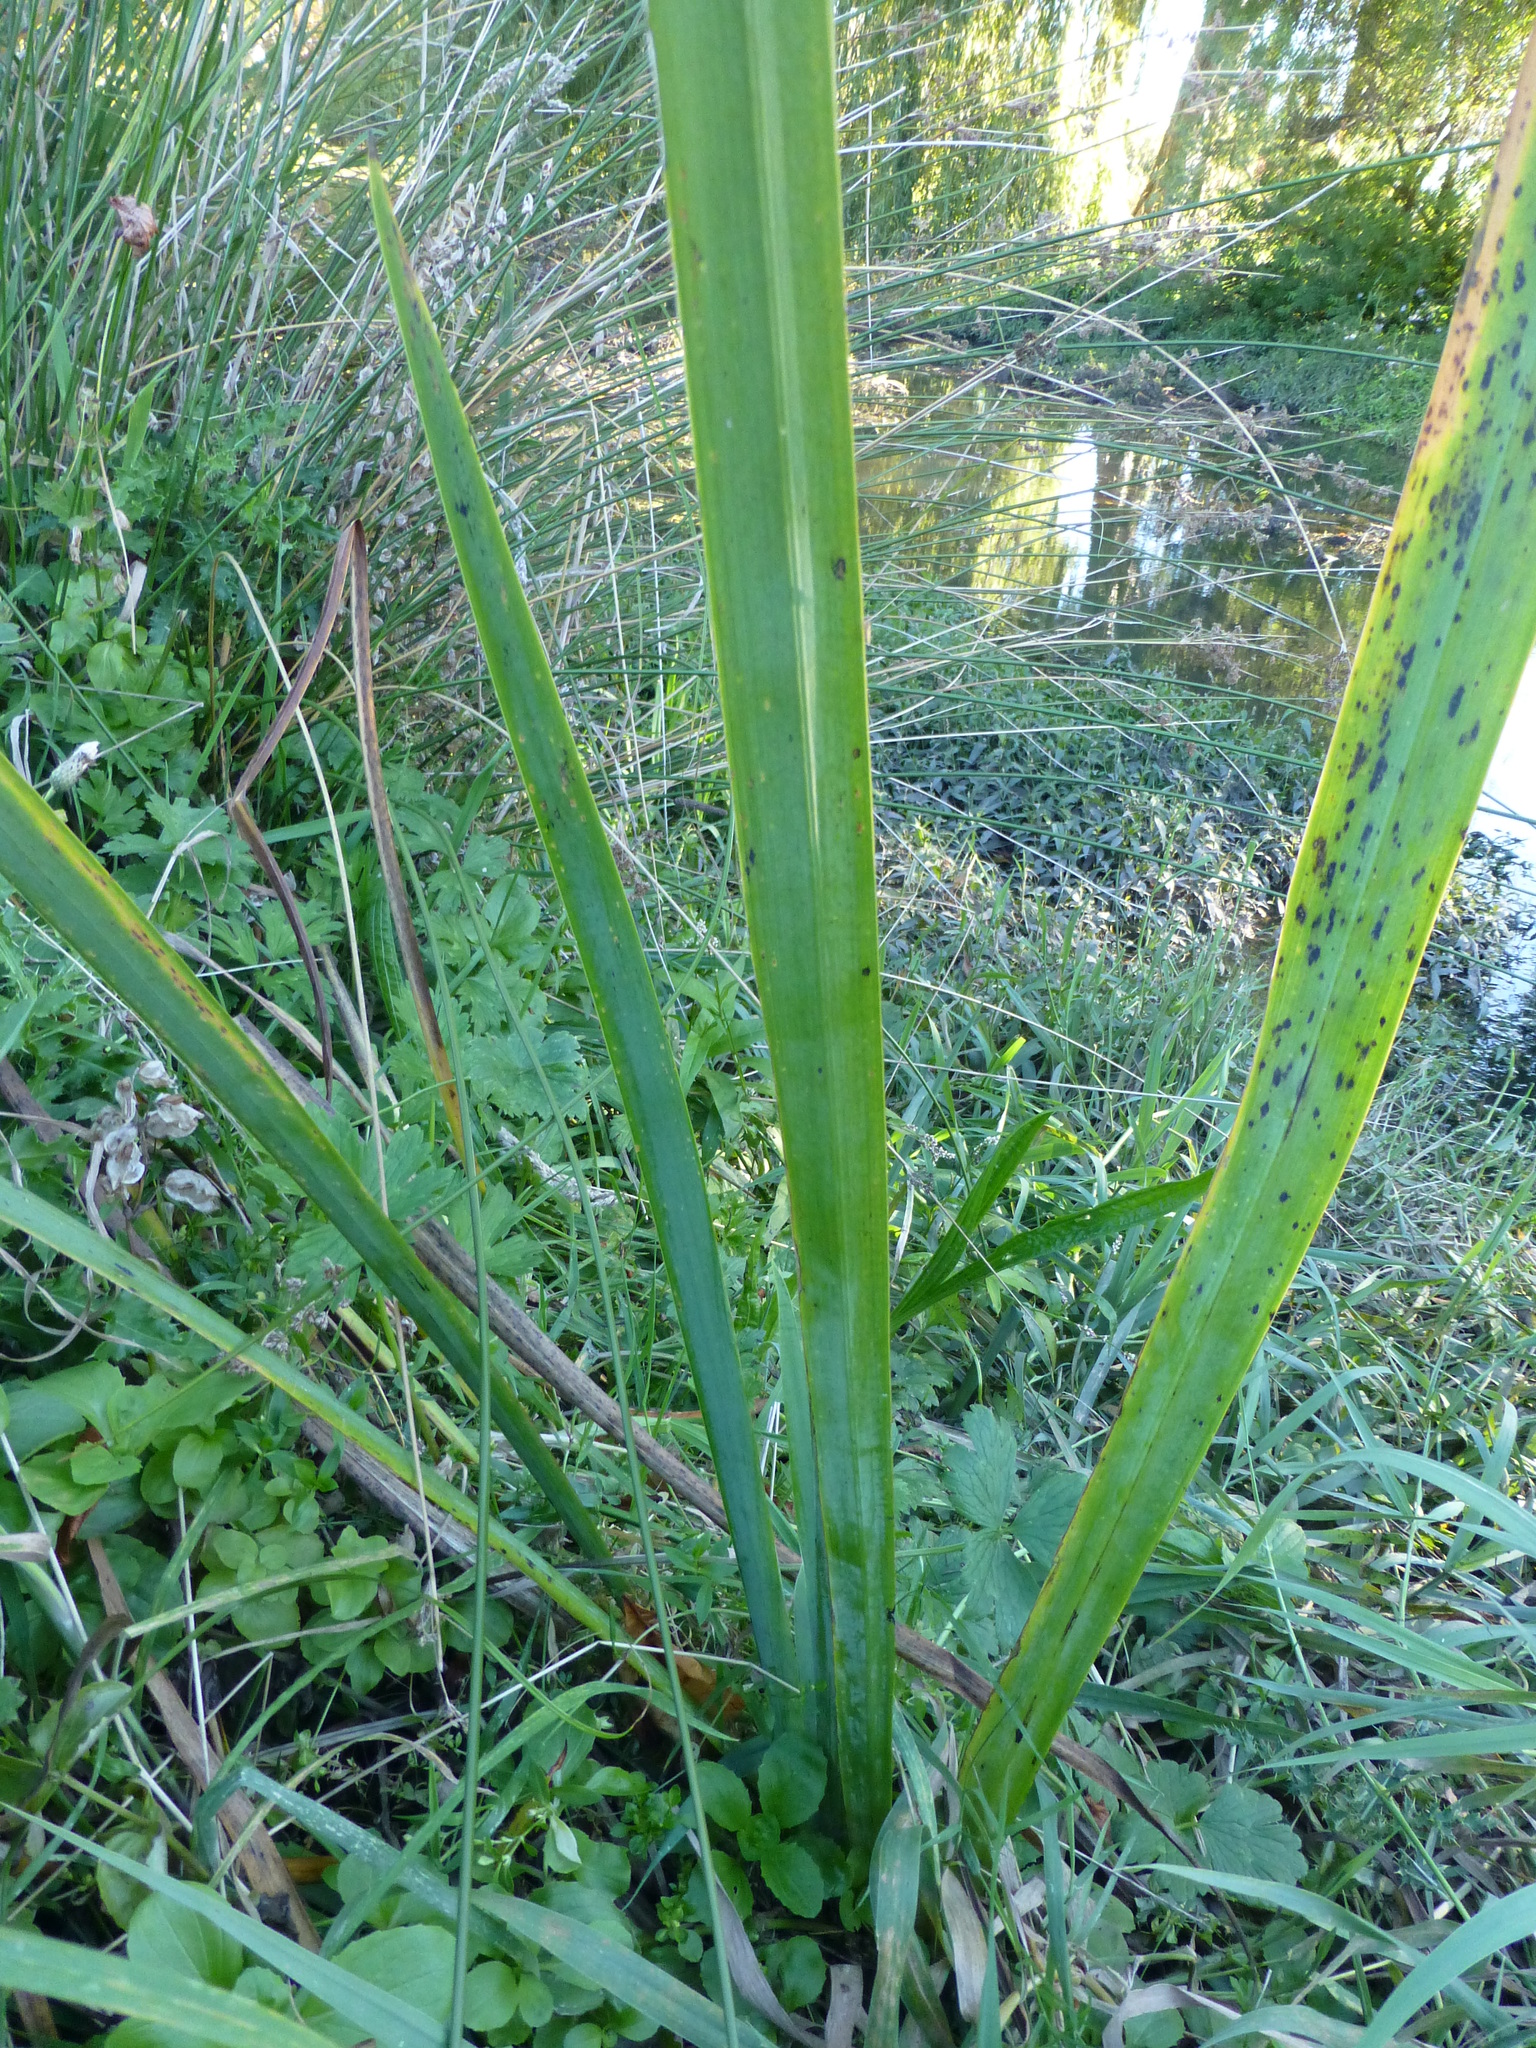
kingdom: Plantae
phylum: Tracheophyta
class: Liliopsida
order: Asparagales
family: Iridaceae
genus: Iris
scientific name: Iris pseudacorus
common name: Yellow flag
